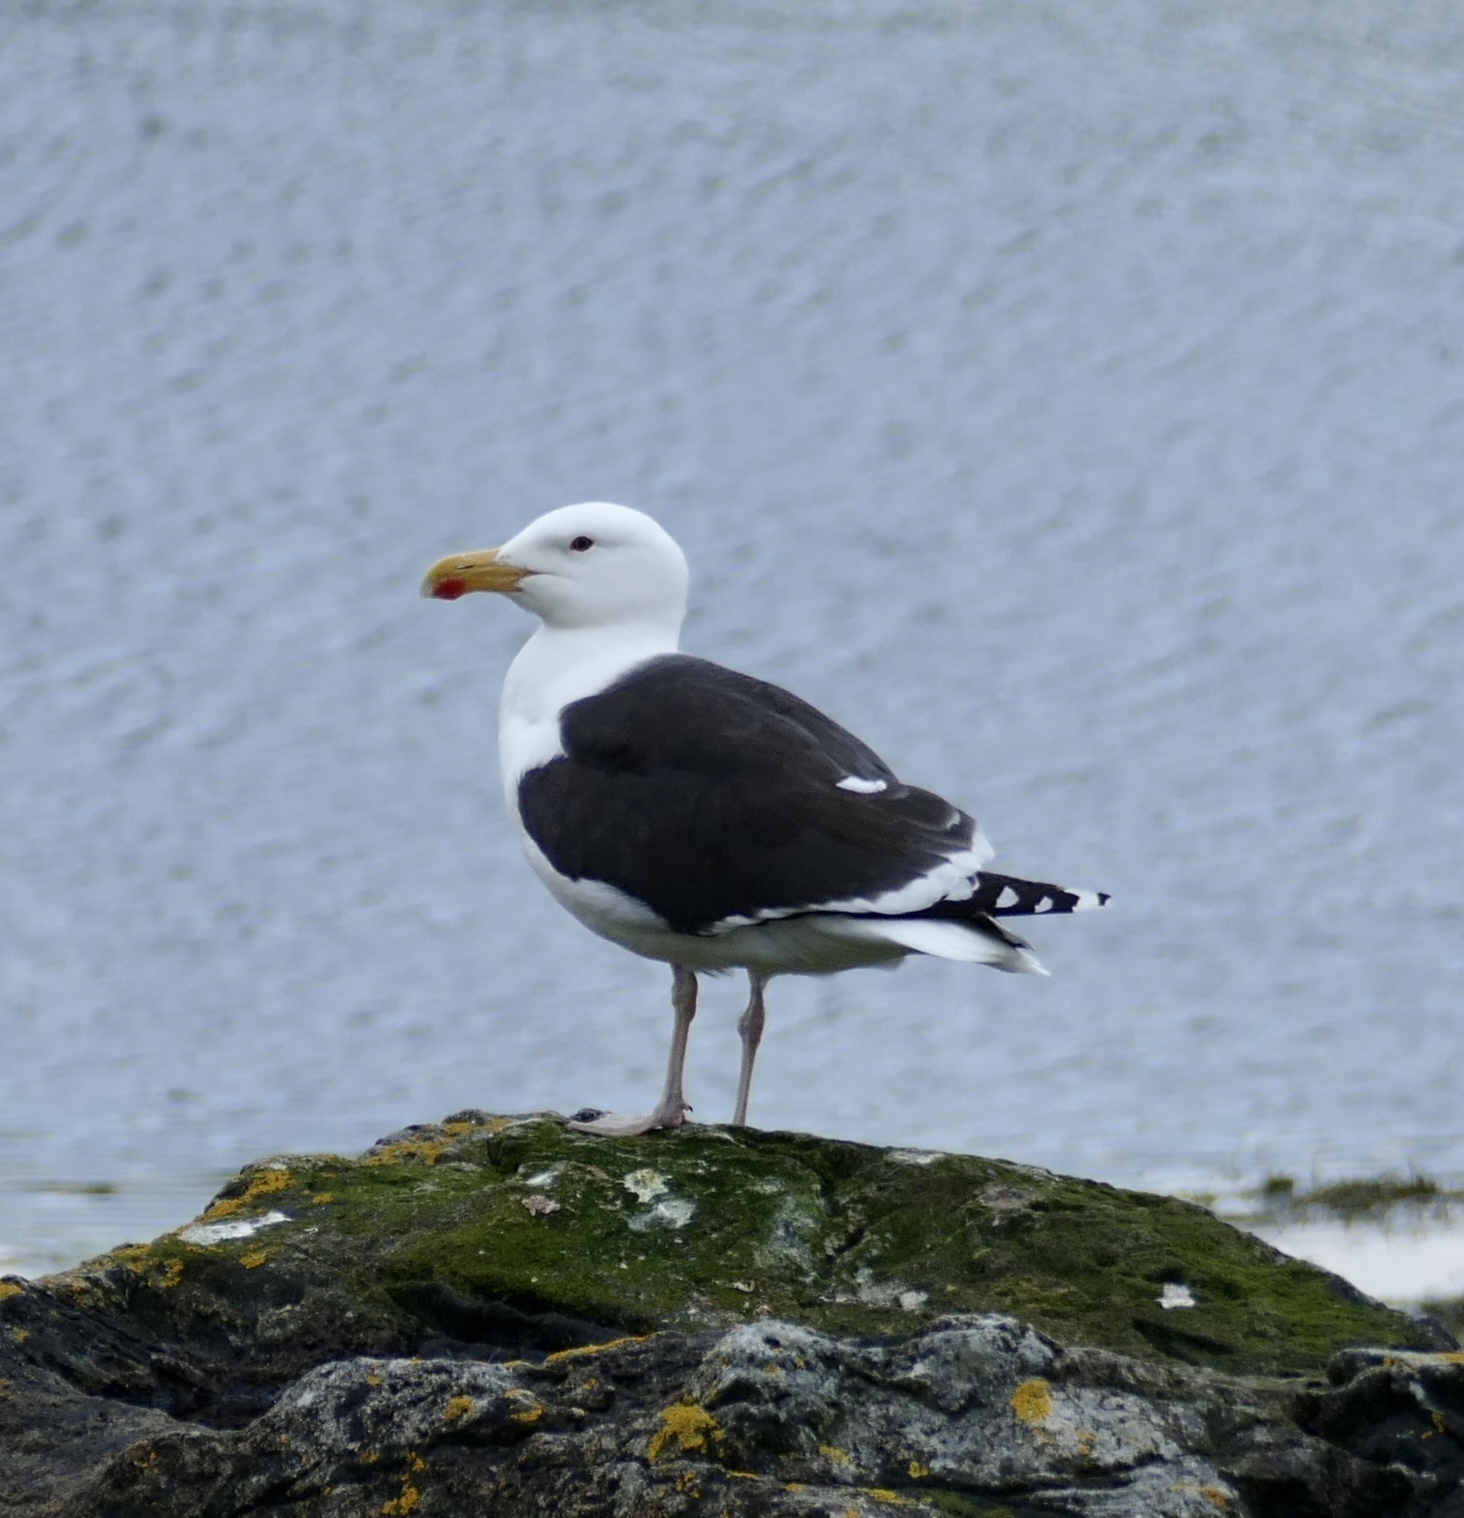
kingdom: Animalia
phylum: Chordata
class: Aves
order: Charadriiformes
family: Laridae
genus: Larus
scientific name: Larus marinus
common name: Great black-backed gull
